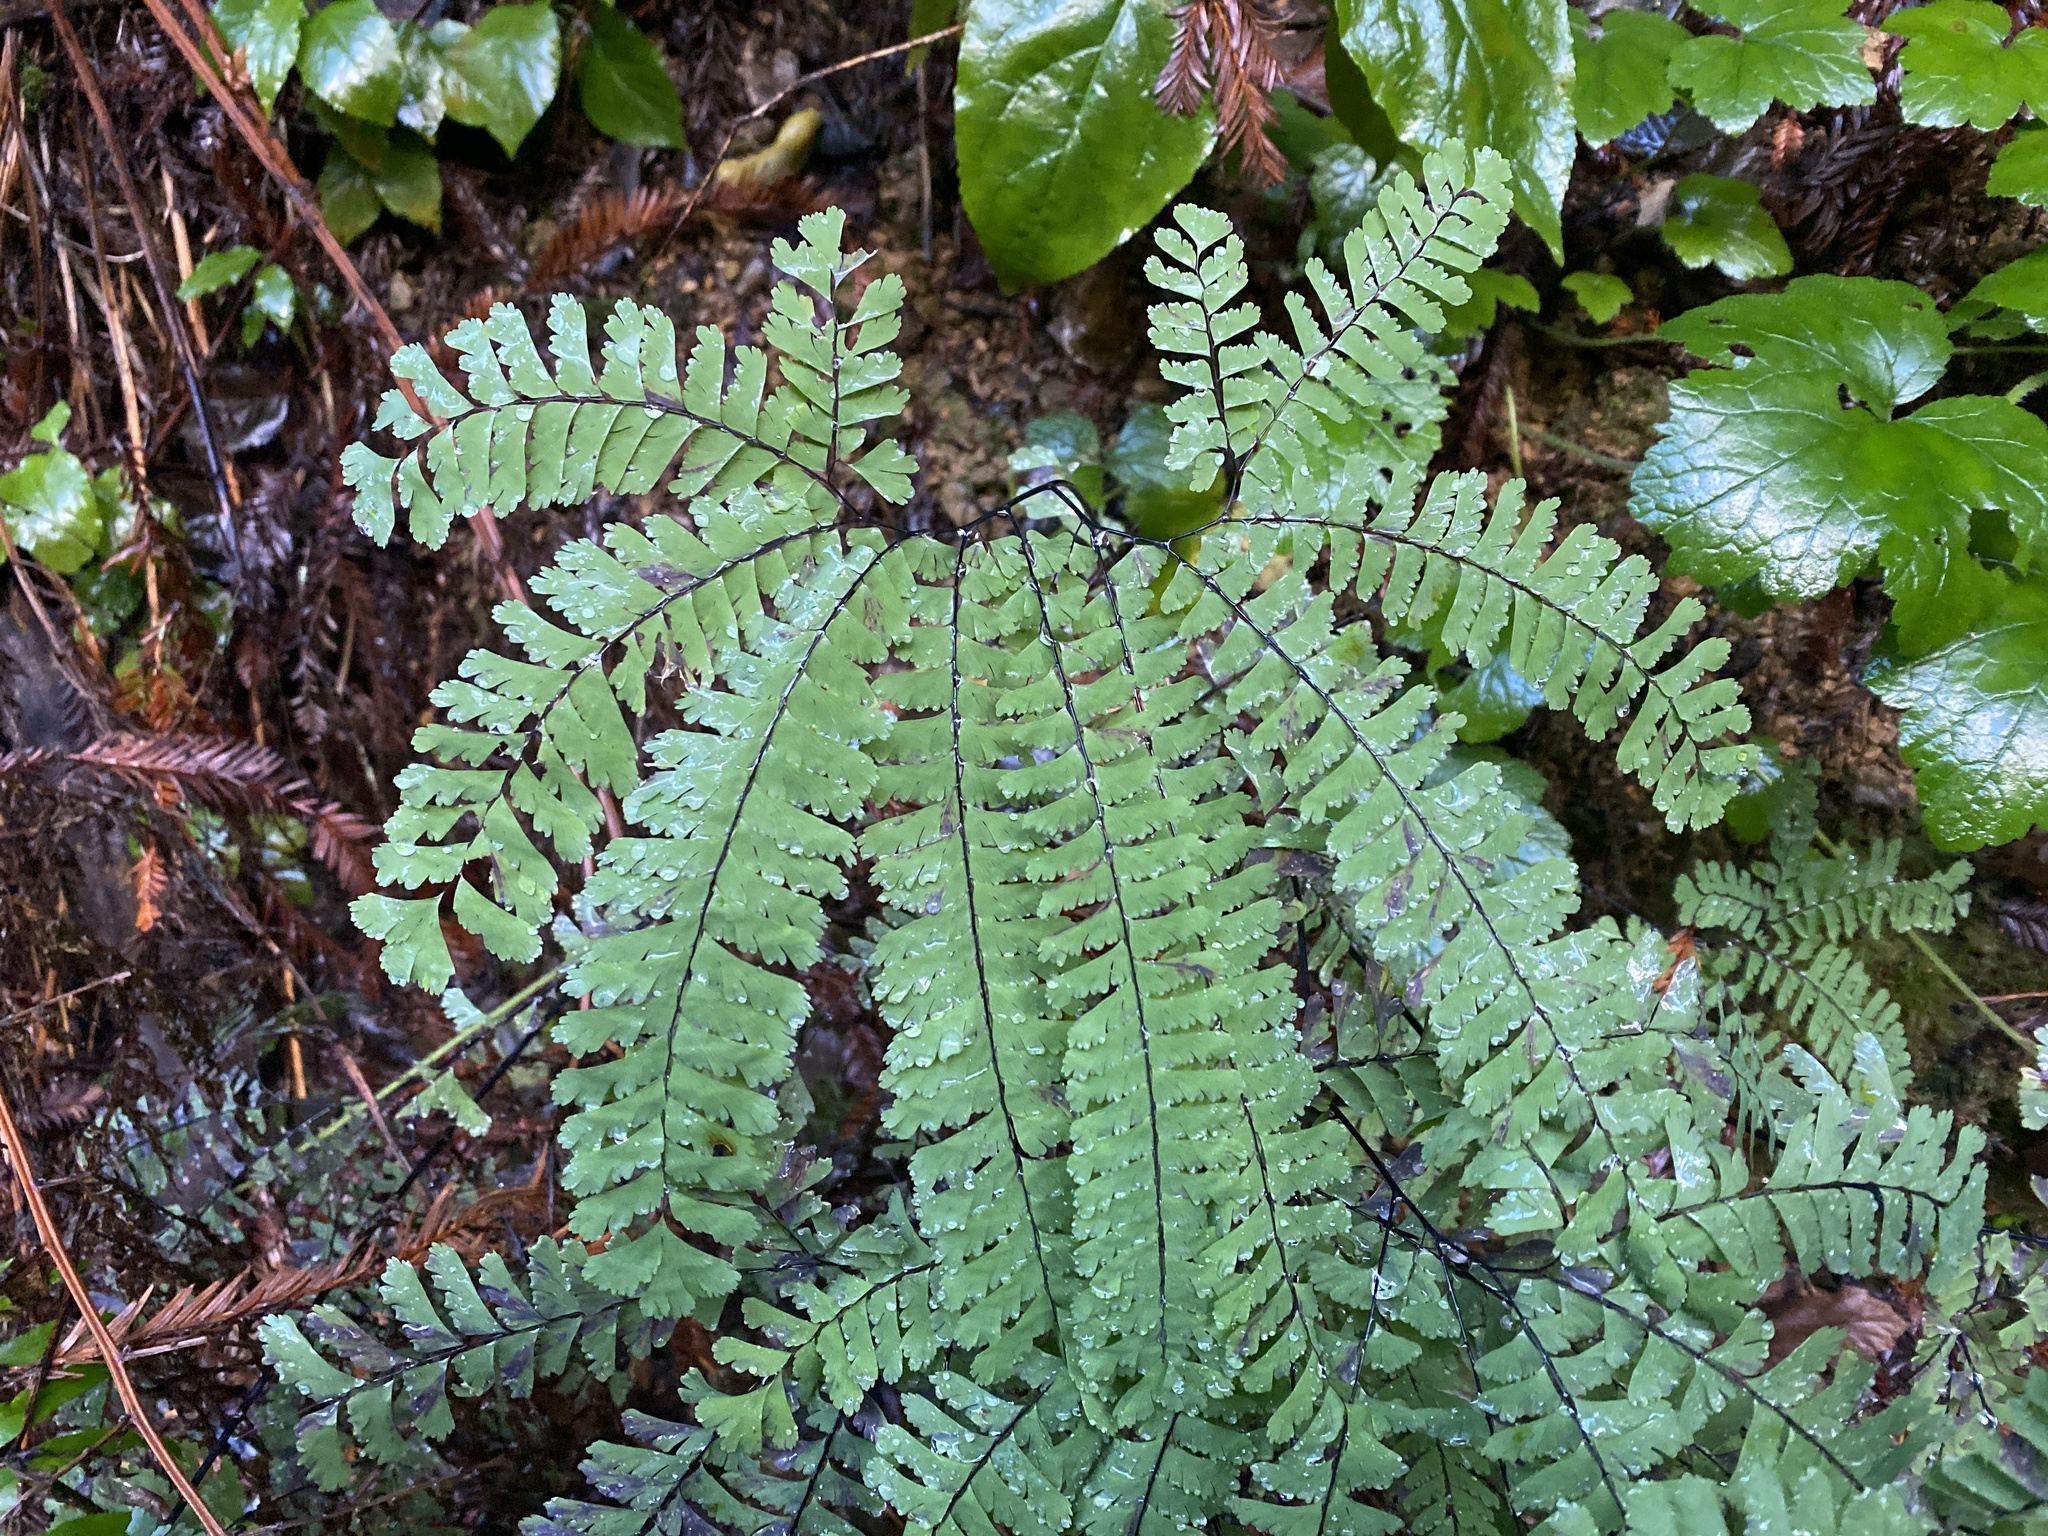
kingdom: Plantae
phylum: Tracheophyta
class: Polypodiopsida
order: Polypodiales
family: Pteridaceae
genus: Adiantum
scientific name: Adiantum aleuticum
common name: Aleutian maidenhair fern
